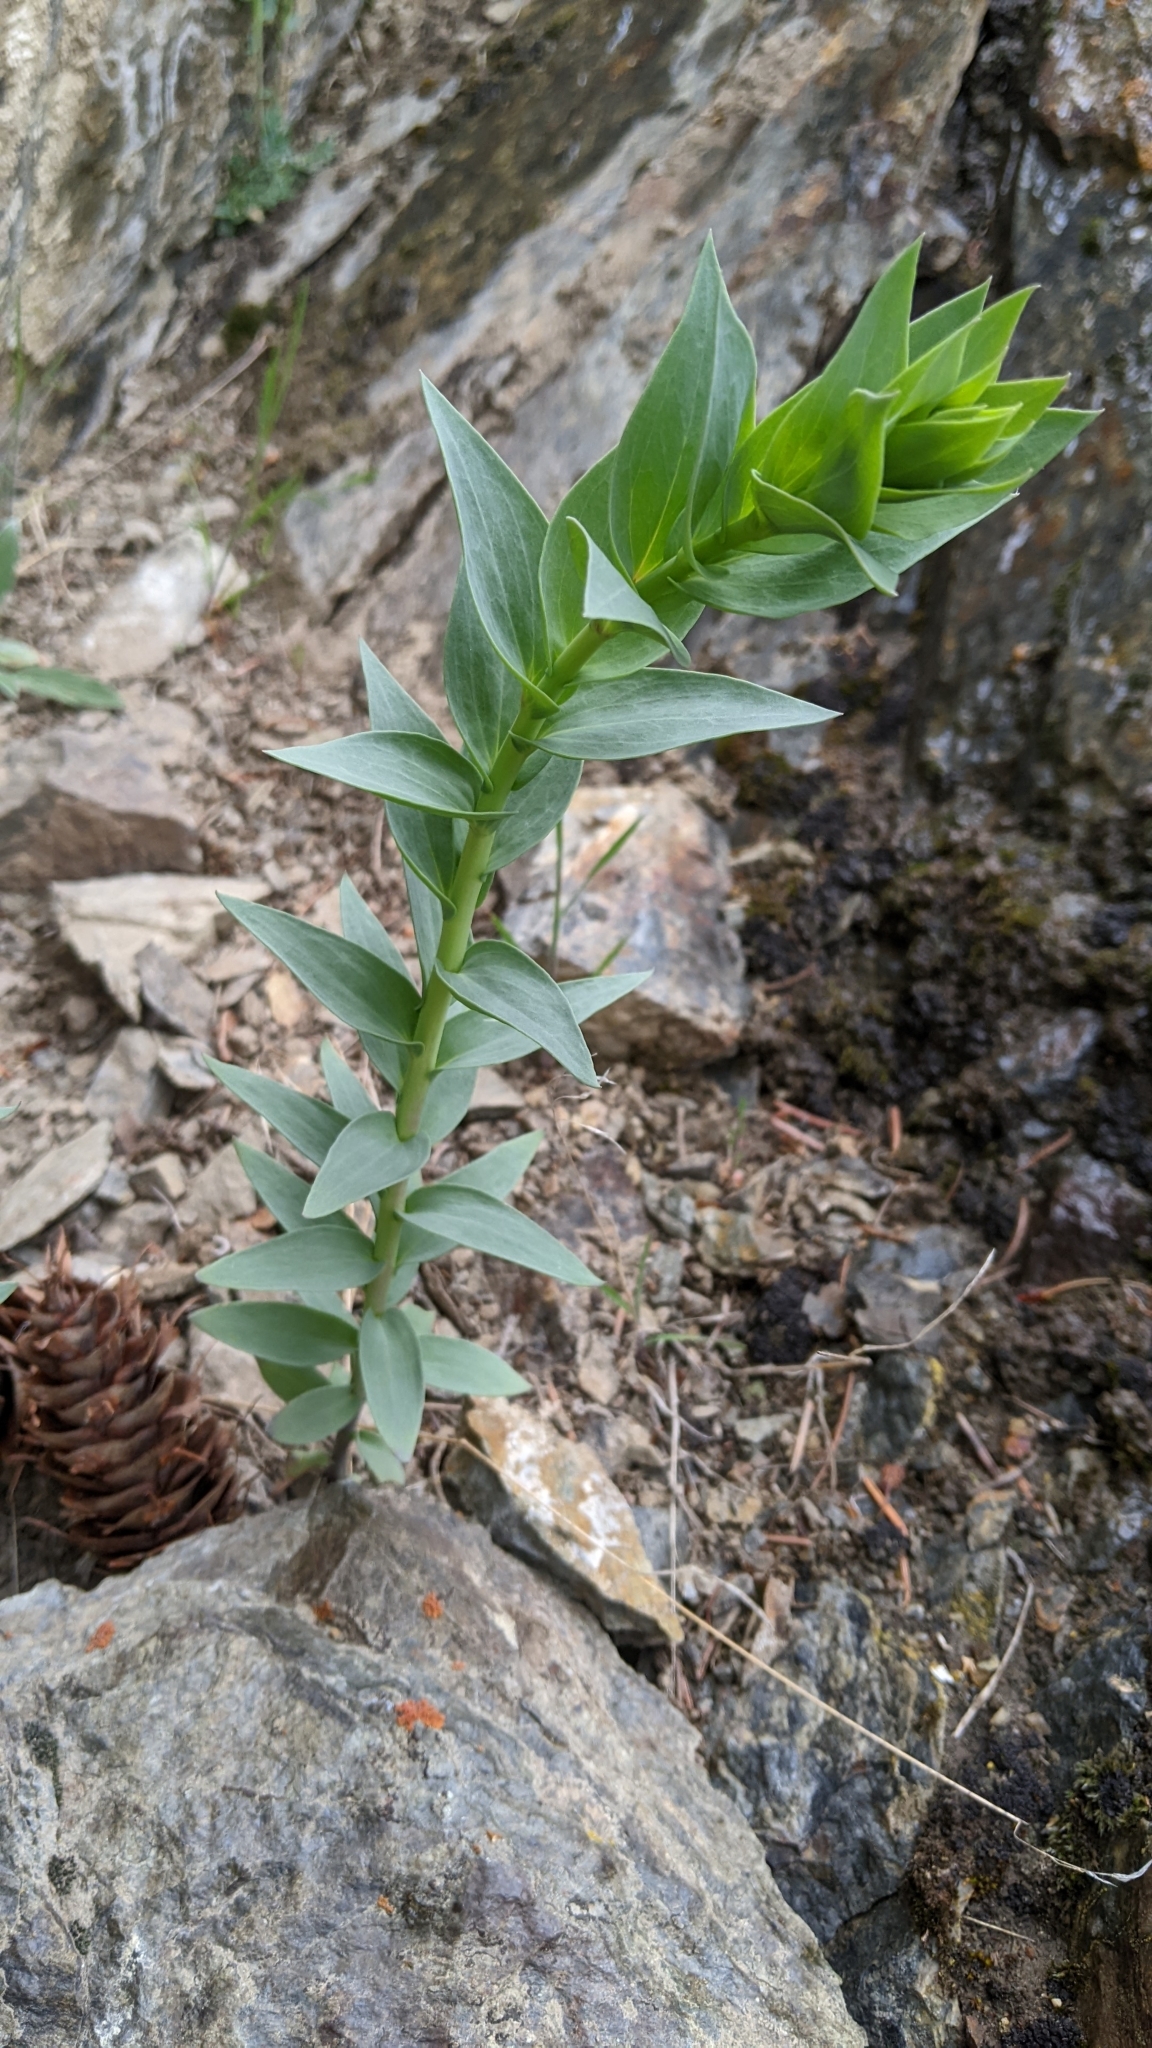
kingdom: Plantae
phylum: Tracheophyta
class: Magnoliopsida
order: Lamiales
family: Plantaginaceae
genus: Linaria
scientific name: Linaria dalmatica
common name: Dalmatian toadflax
